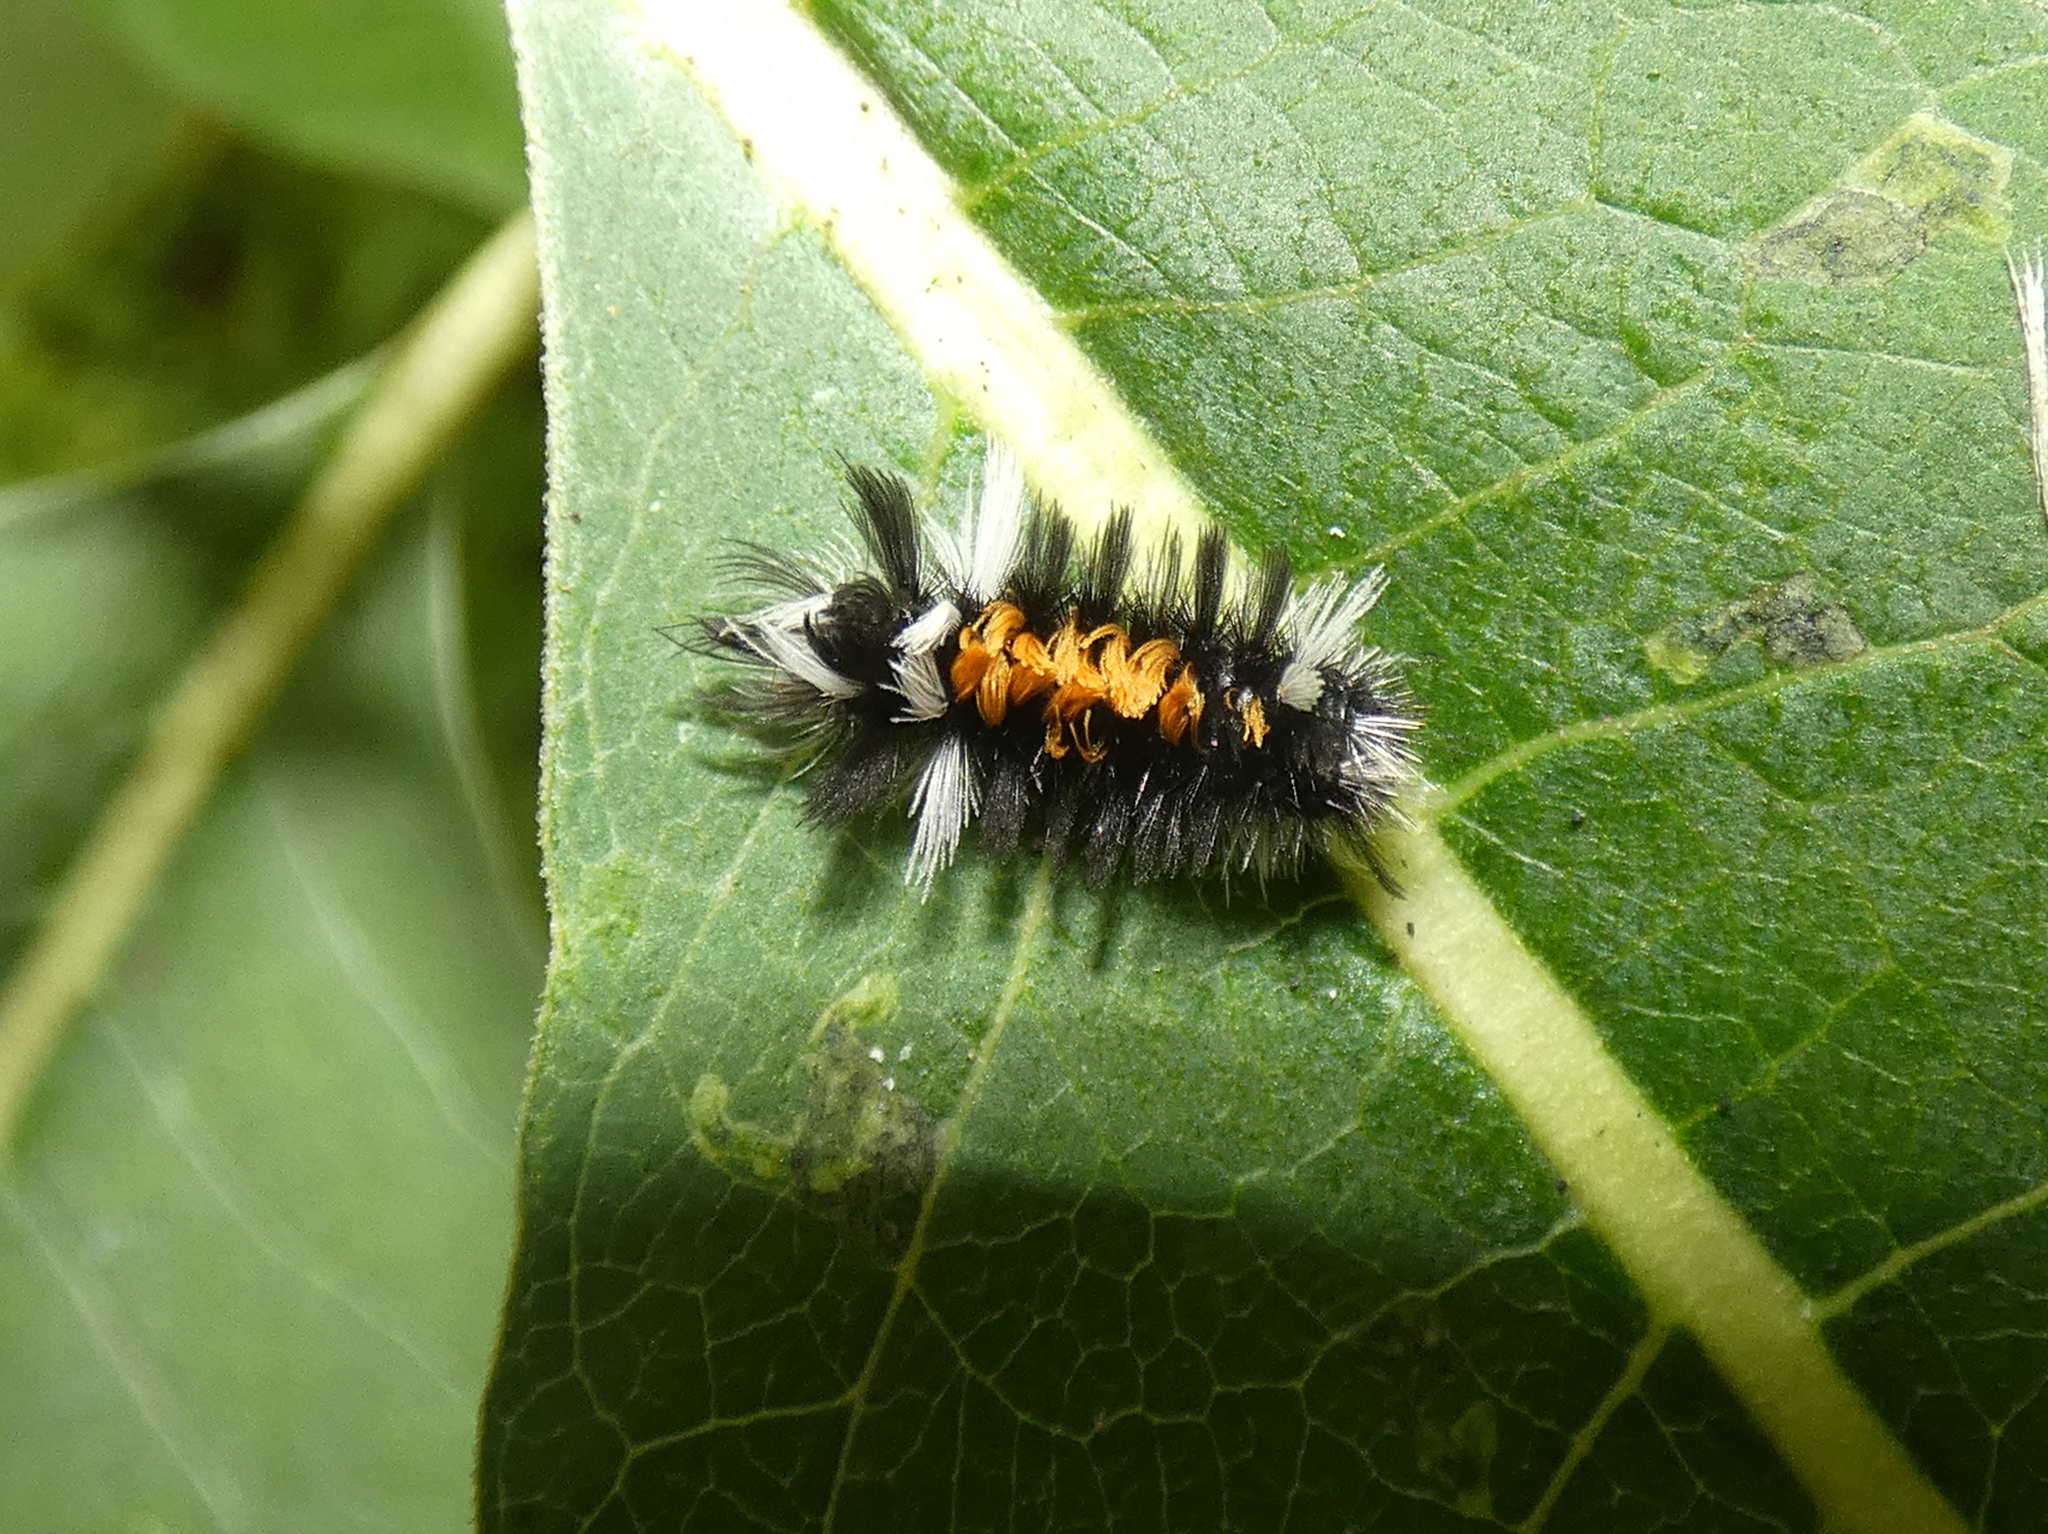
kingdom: Animalia
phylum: Arthropoda
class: Insecta
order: Lepidoptera
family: Erebidae
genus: Euchaetes
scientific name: Euchaetes egle
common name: Milkweed tussock moth
